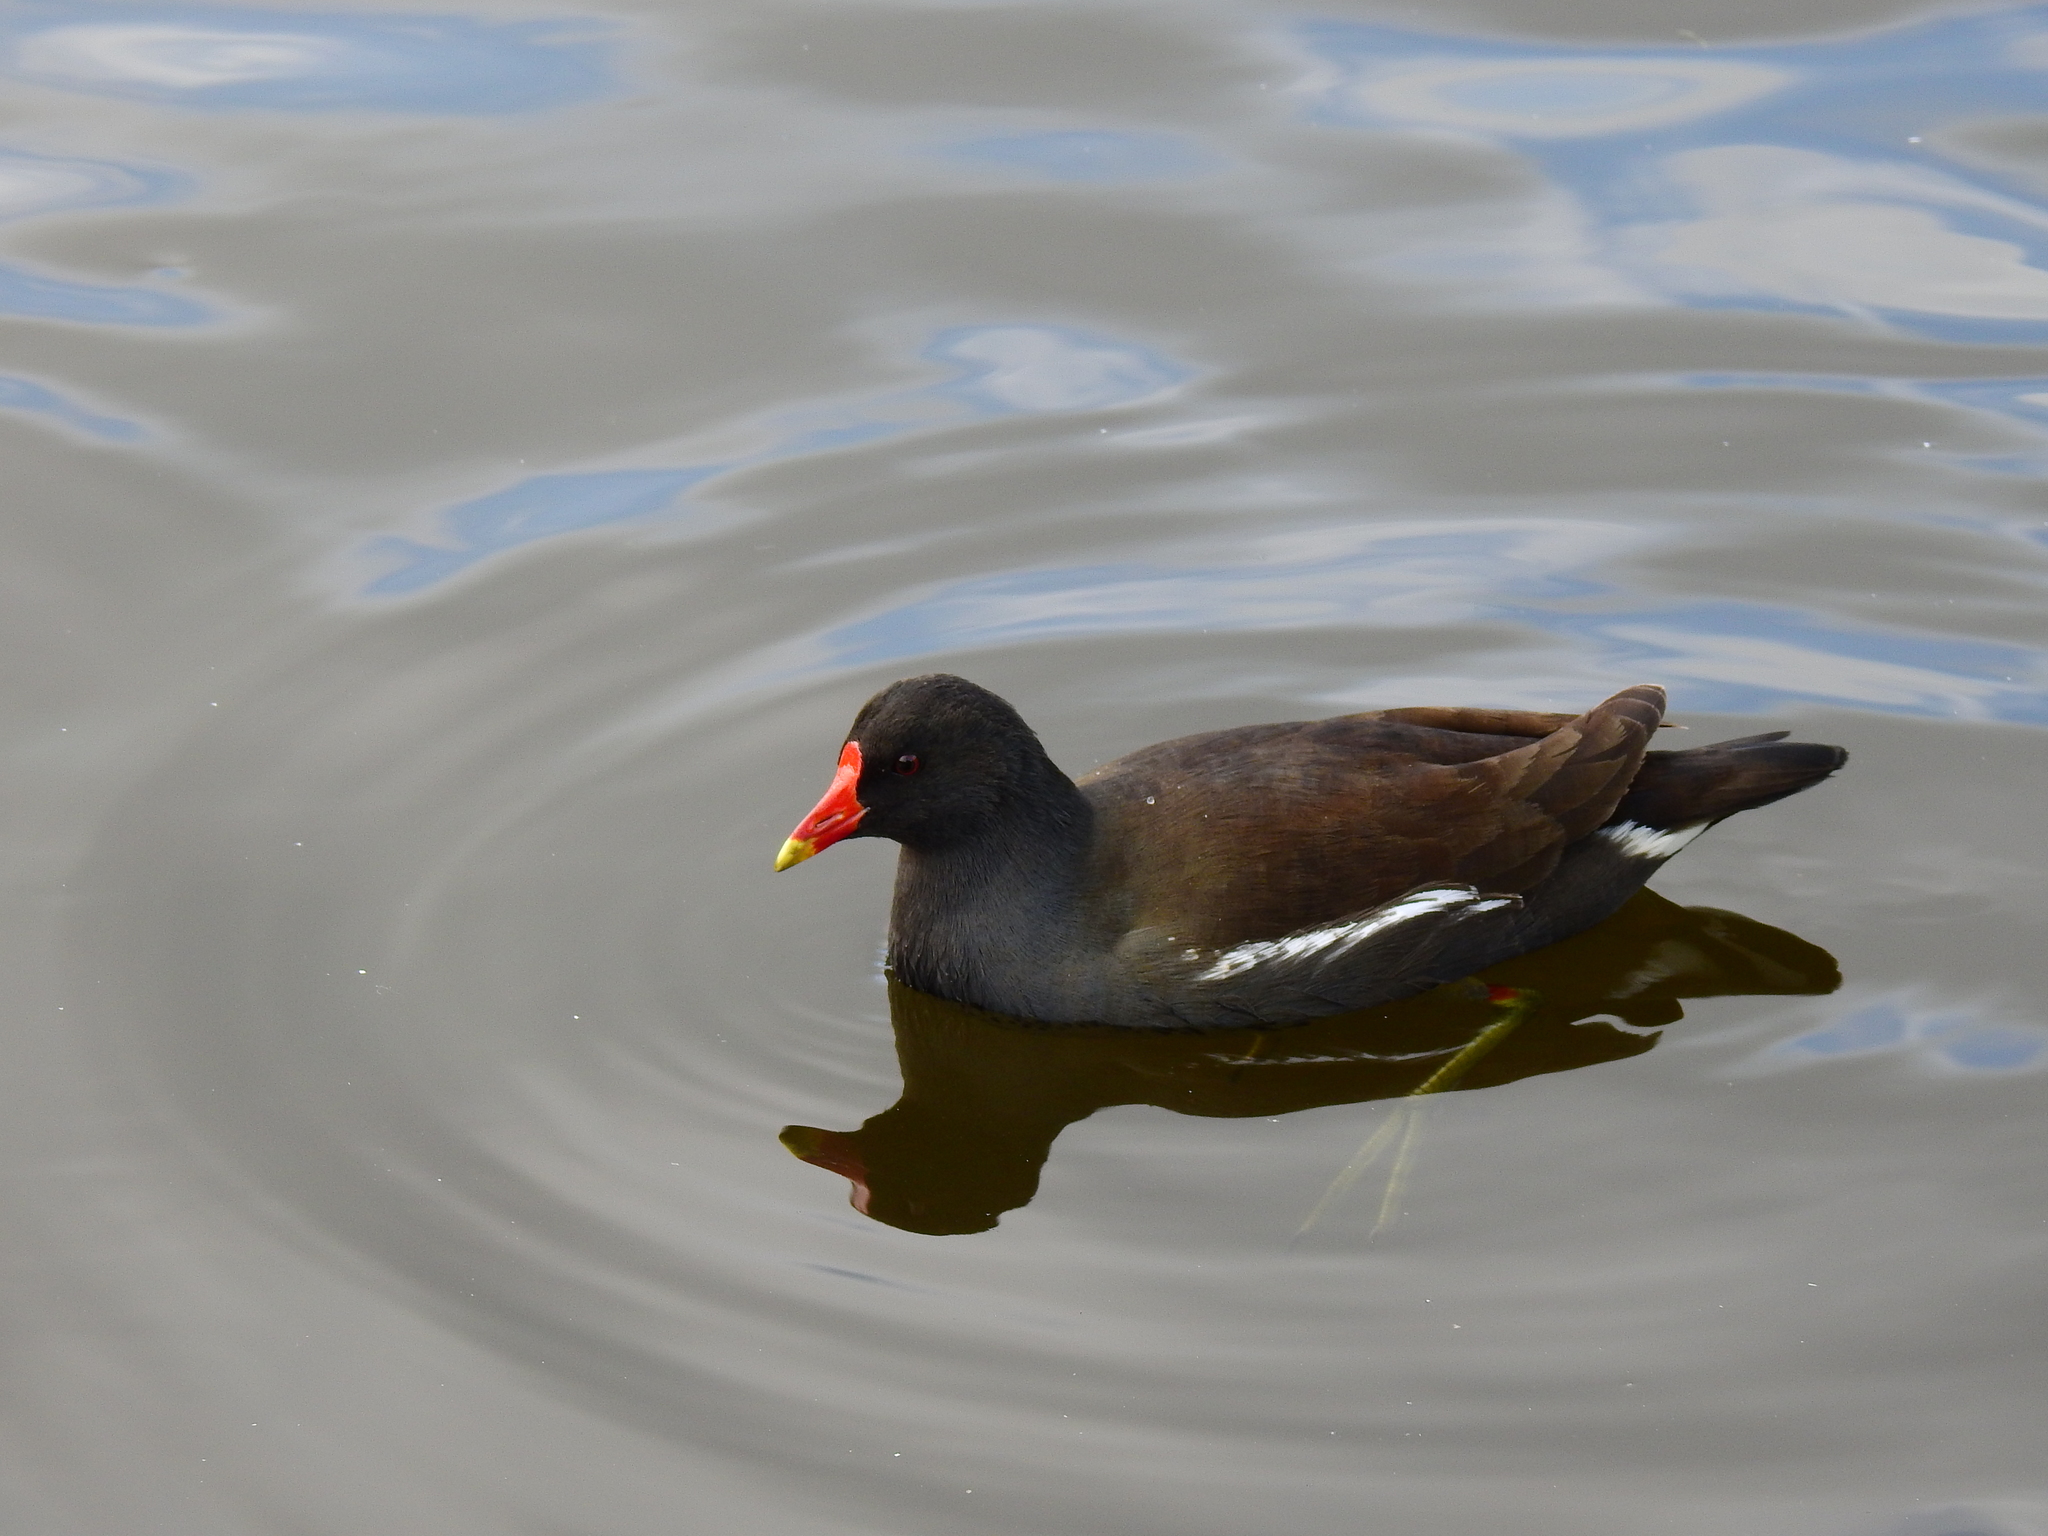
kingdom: Animalia
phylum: Chordata
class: Aves
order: Gruiformes
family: Rallidae
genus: Gallinula
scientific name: Gallinula chloropus
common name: Common moorhen
